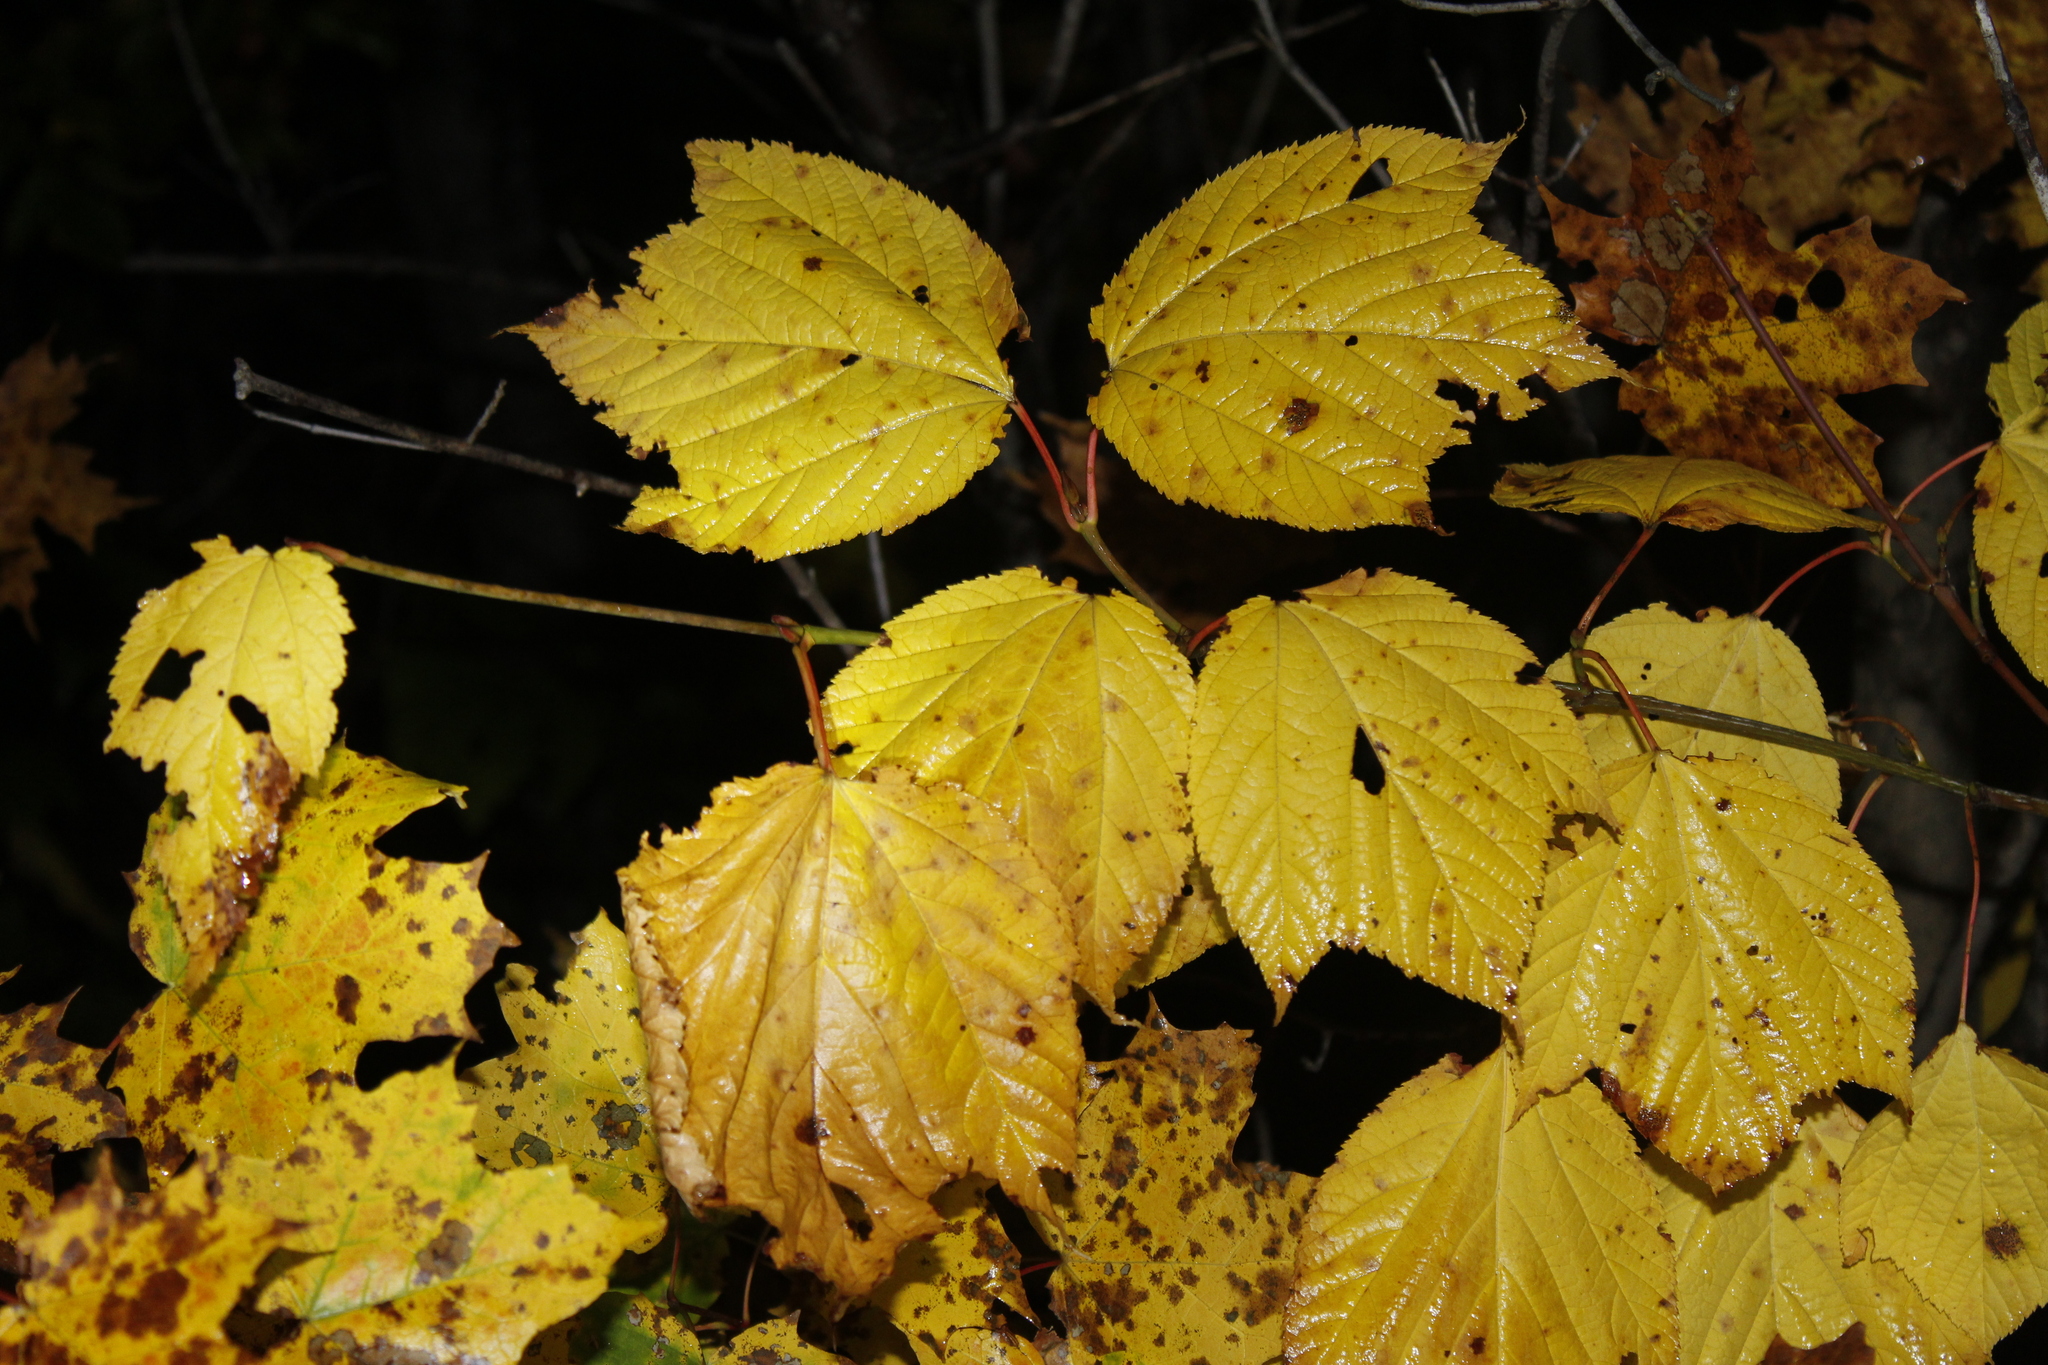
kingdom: Plantae
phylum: Tracheophyta
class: Magnoliopsida
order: Sapindales
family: Sapindaceae
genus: Acer
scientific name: Acer pensylvanicum
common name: Moosewood
